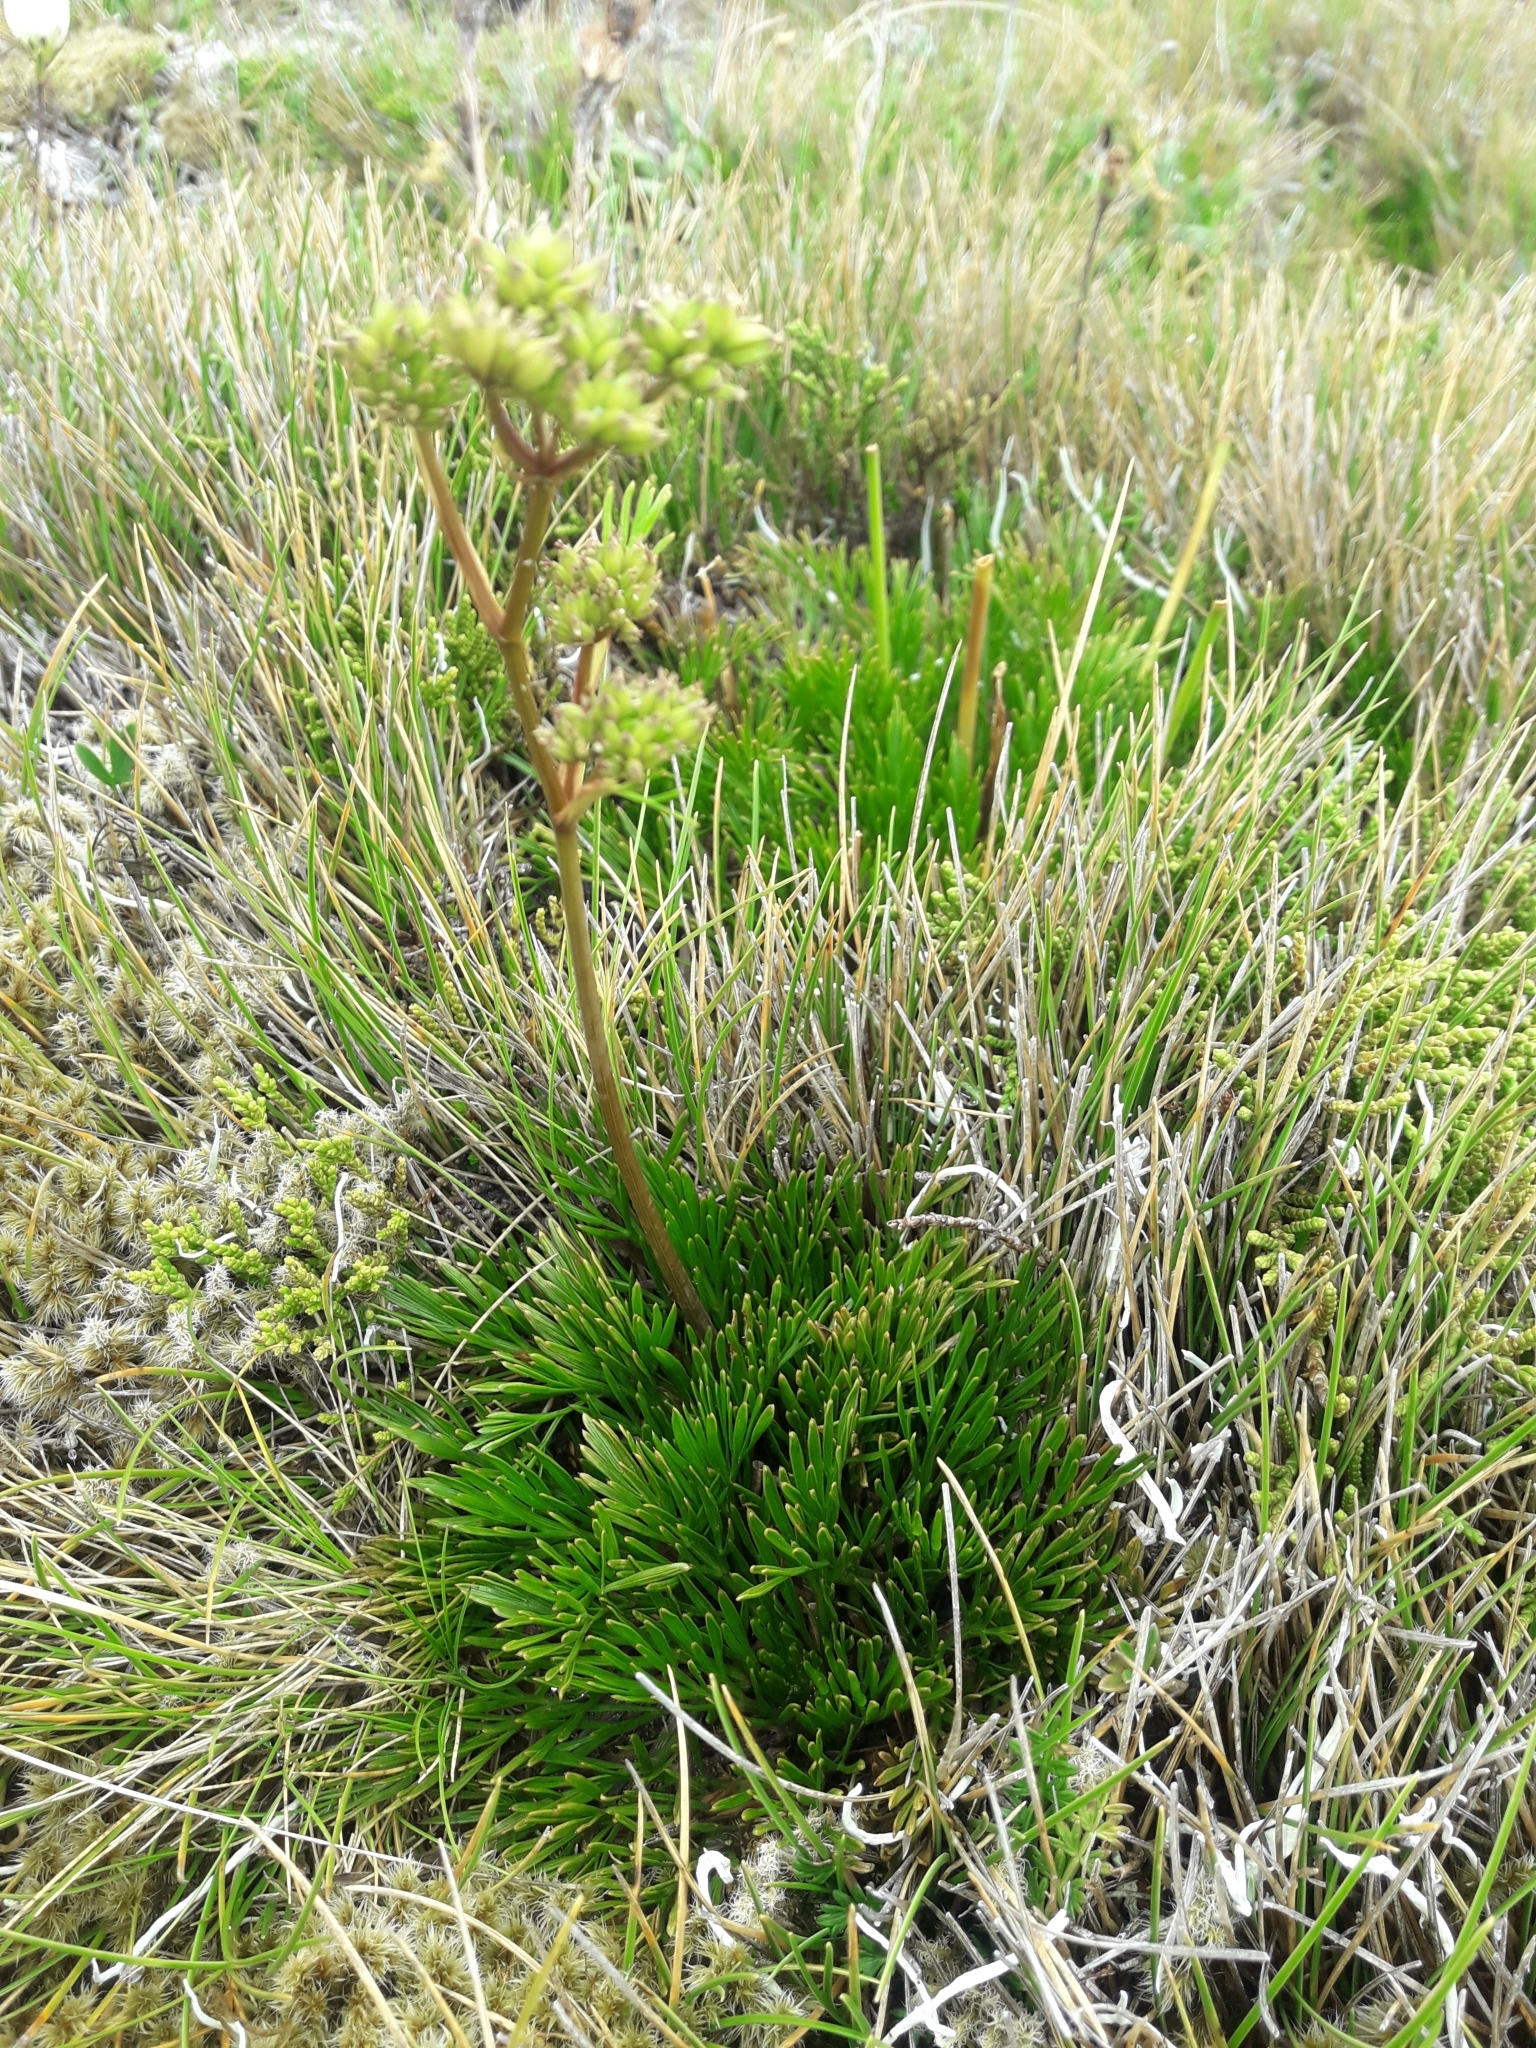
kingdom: Plantae
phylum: Tracheophyta
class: Magnoliopsida
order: Apiales
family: Apiaceae
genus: Aciphylla
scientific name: Aciphylla polita
